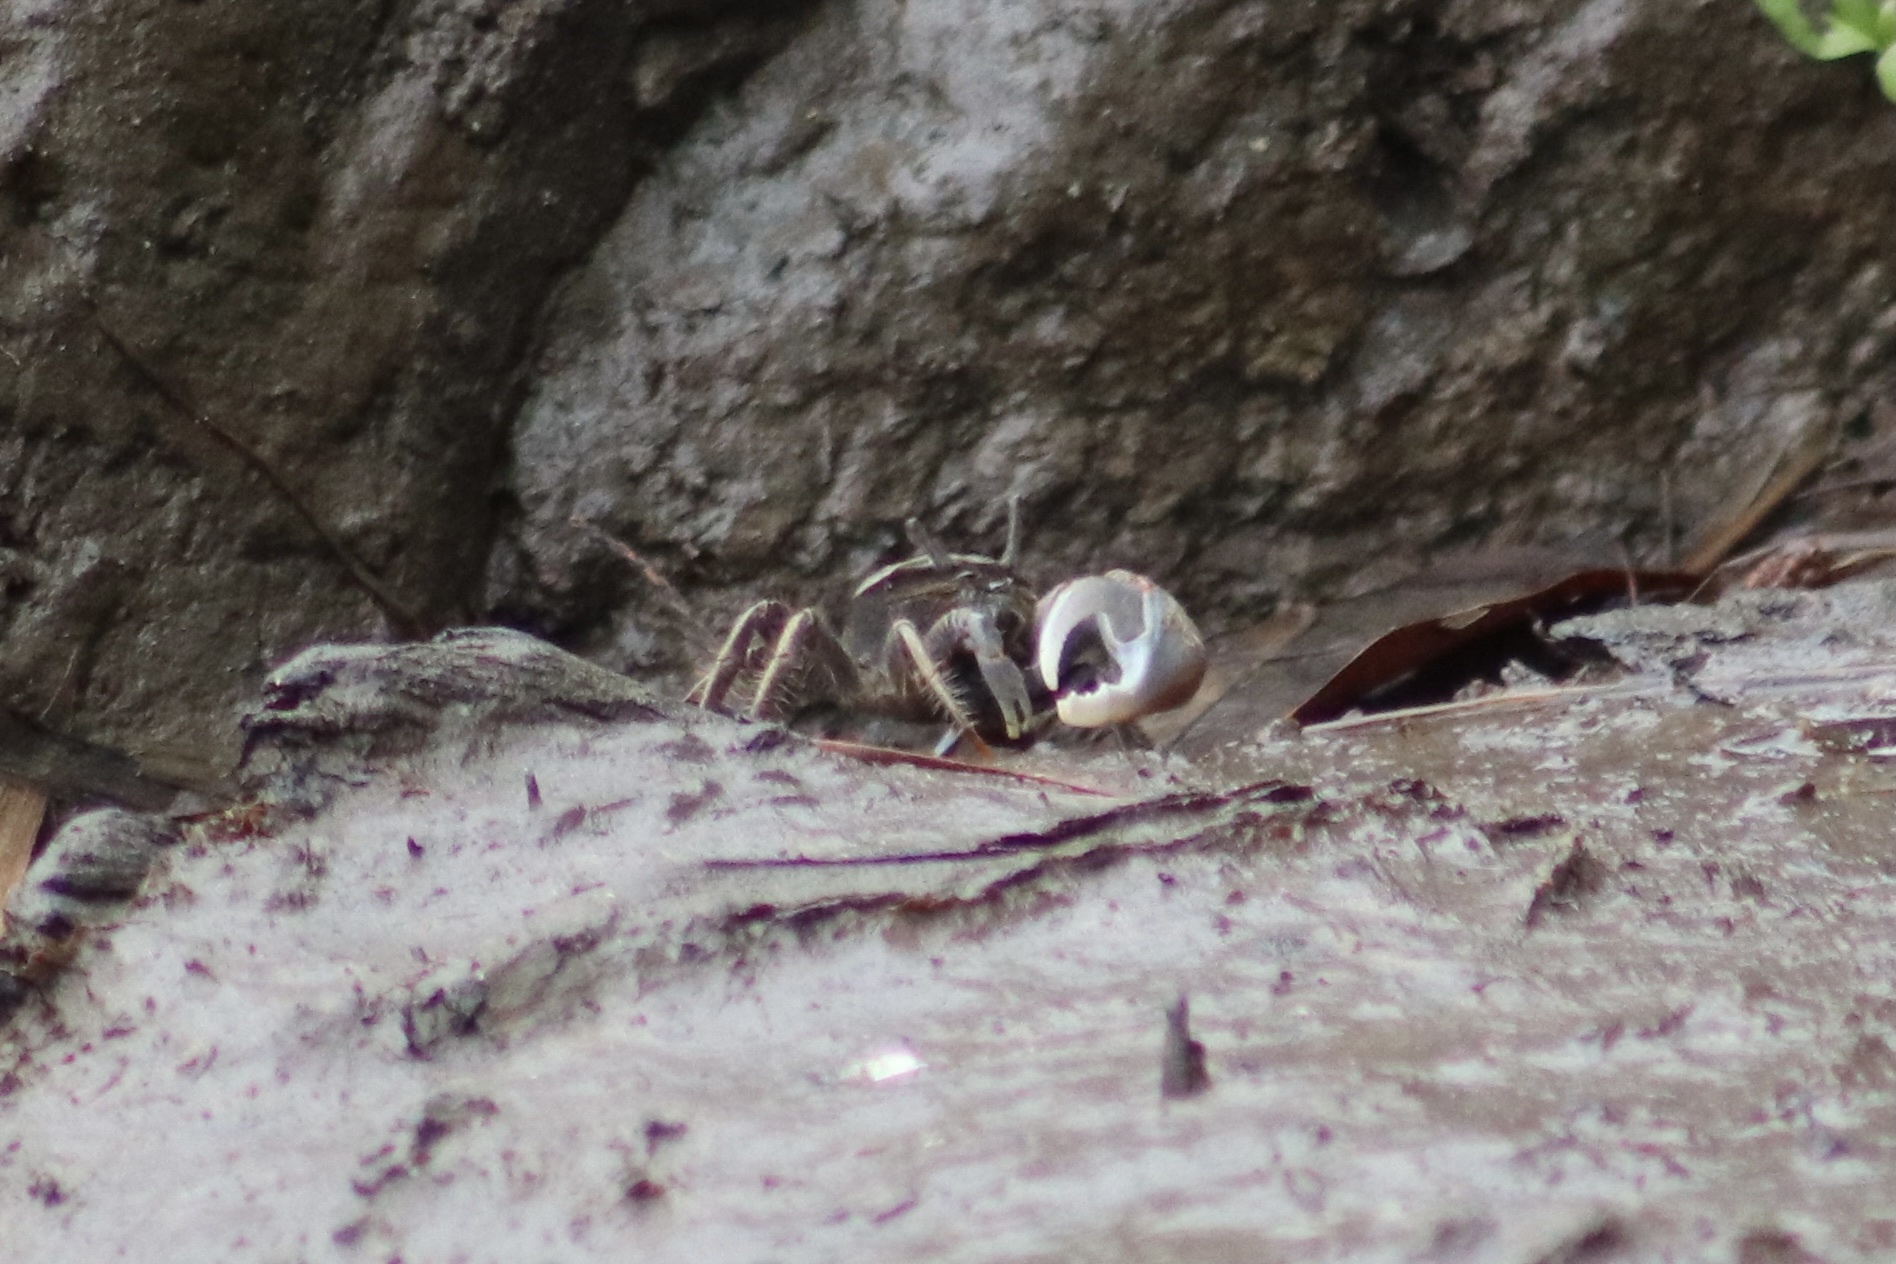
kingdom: Animalia
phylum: Arthropoda
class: Malacostraca
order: Decapoda
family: Ocypodidae
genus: Minuca
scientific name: Minuca minax
